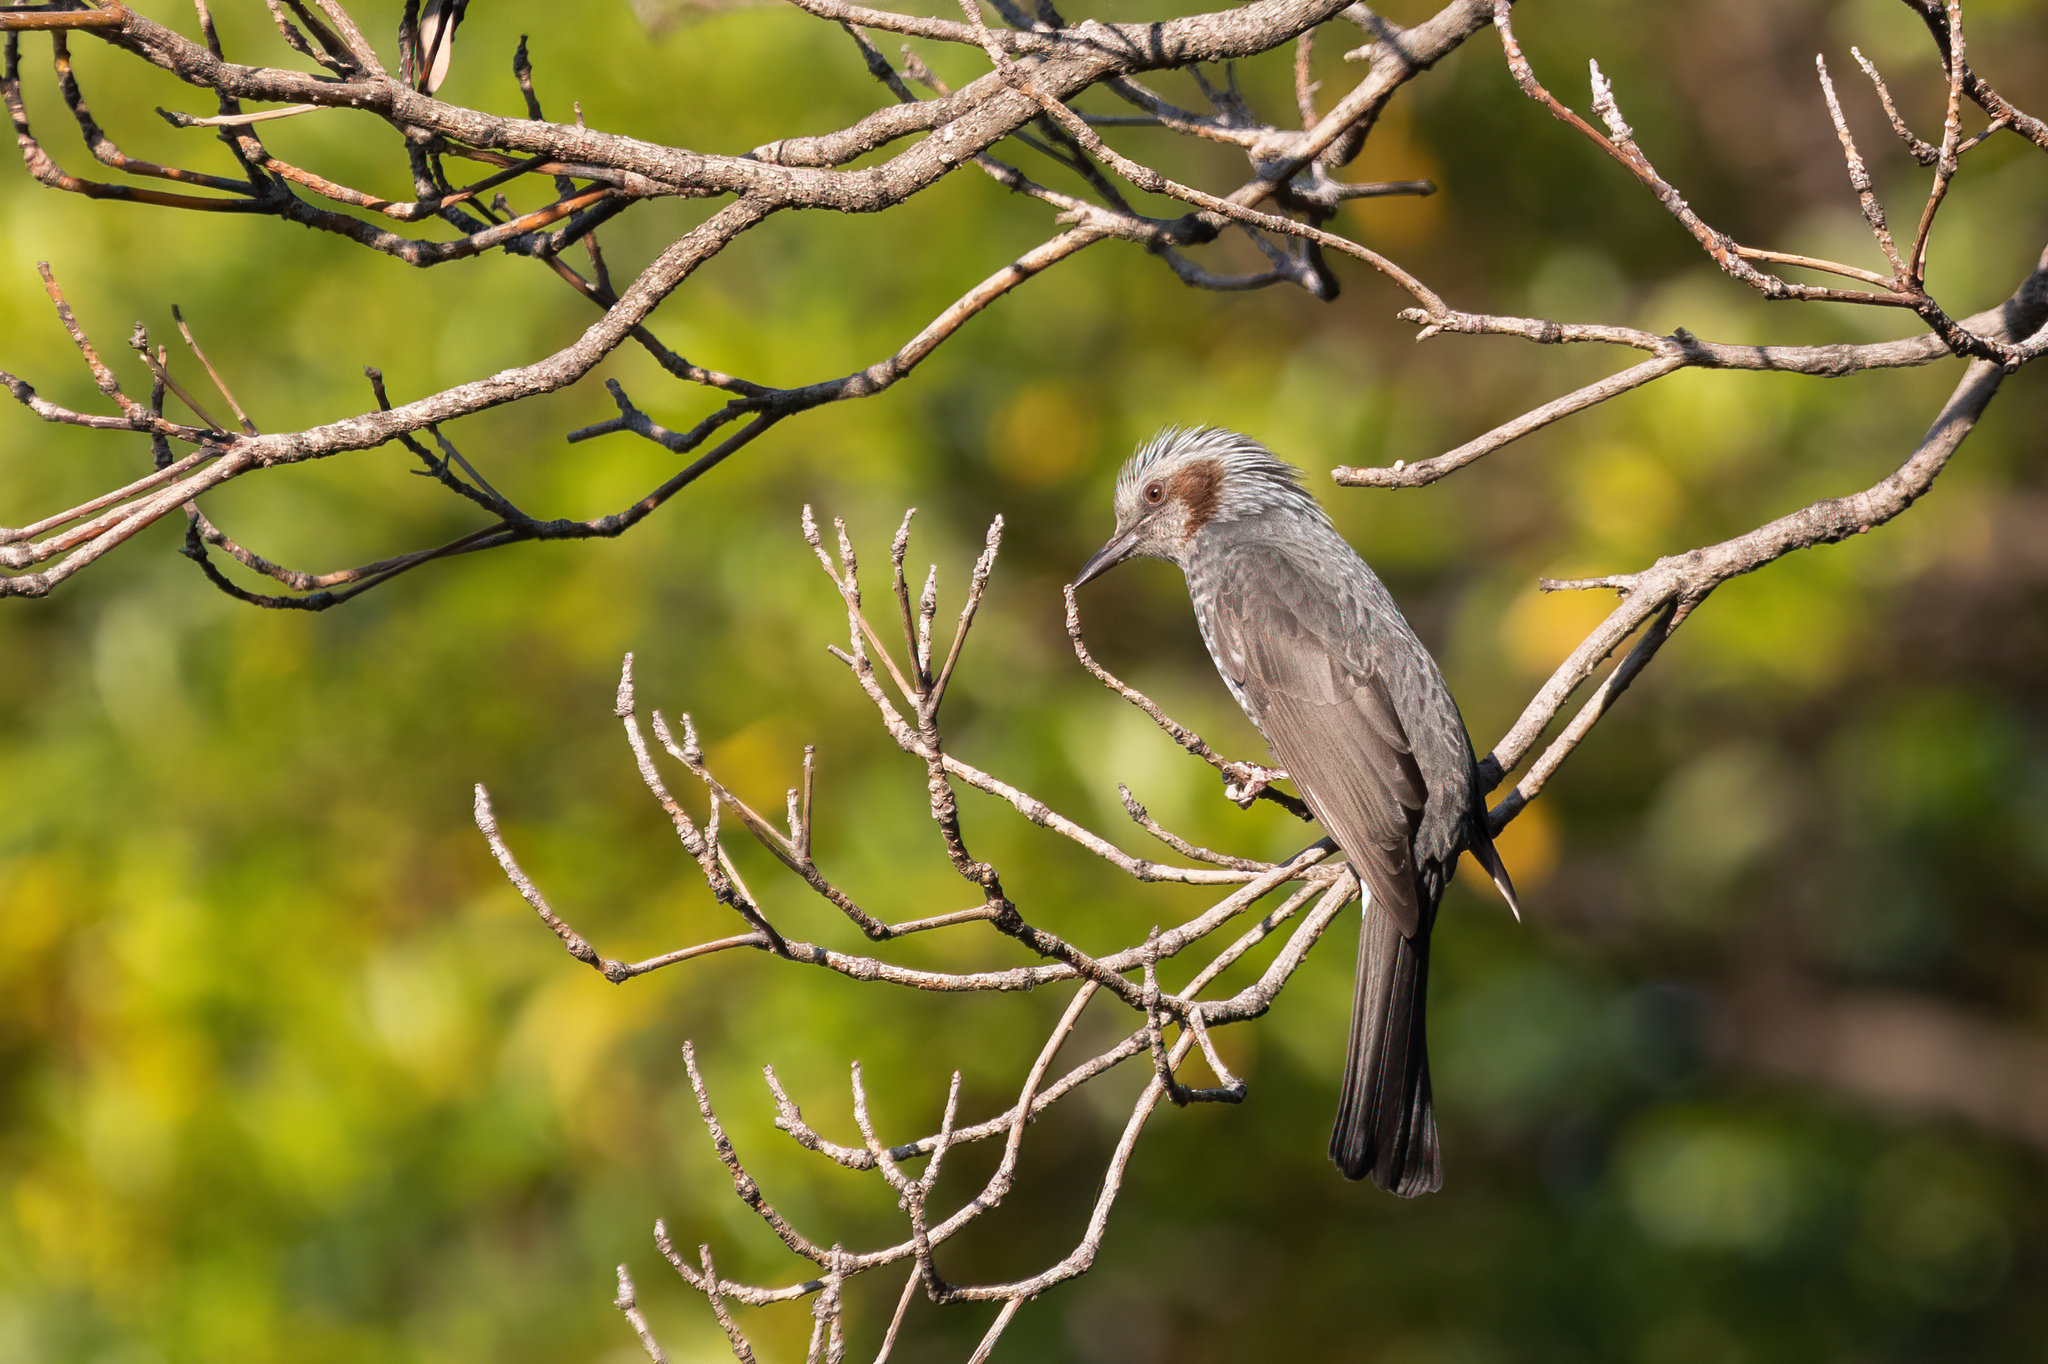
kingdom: Animalia
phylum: Chordata
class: Aves
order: Passeriformes
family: Pycnonotidae
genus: Hypsipetes
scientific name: Hypsipetes amaurotis
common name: Brown-eared bulbul
